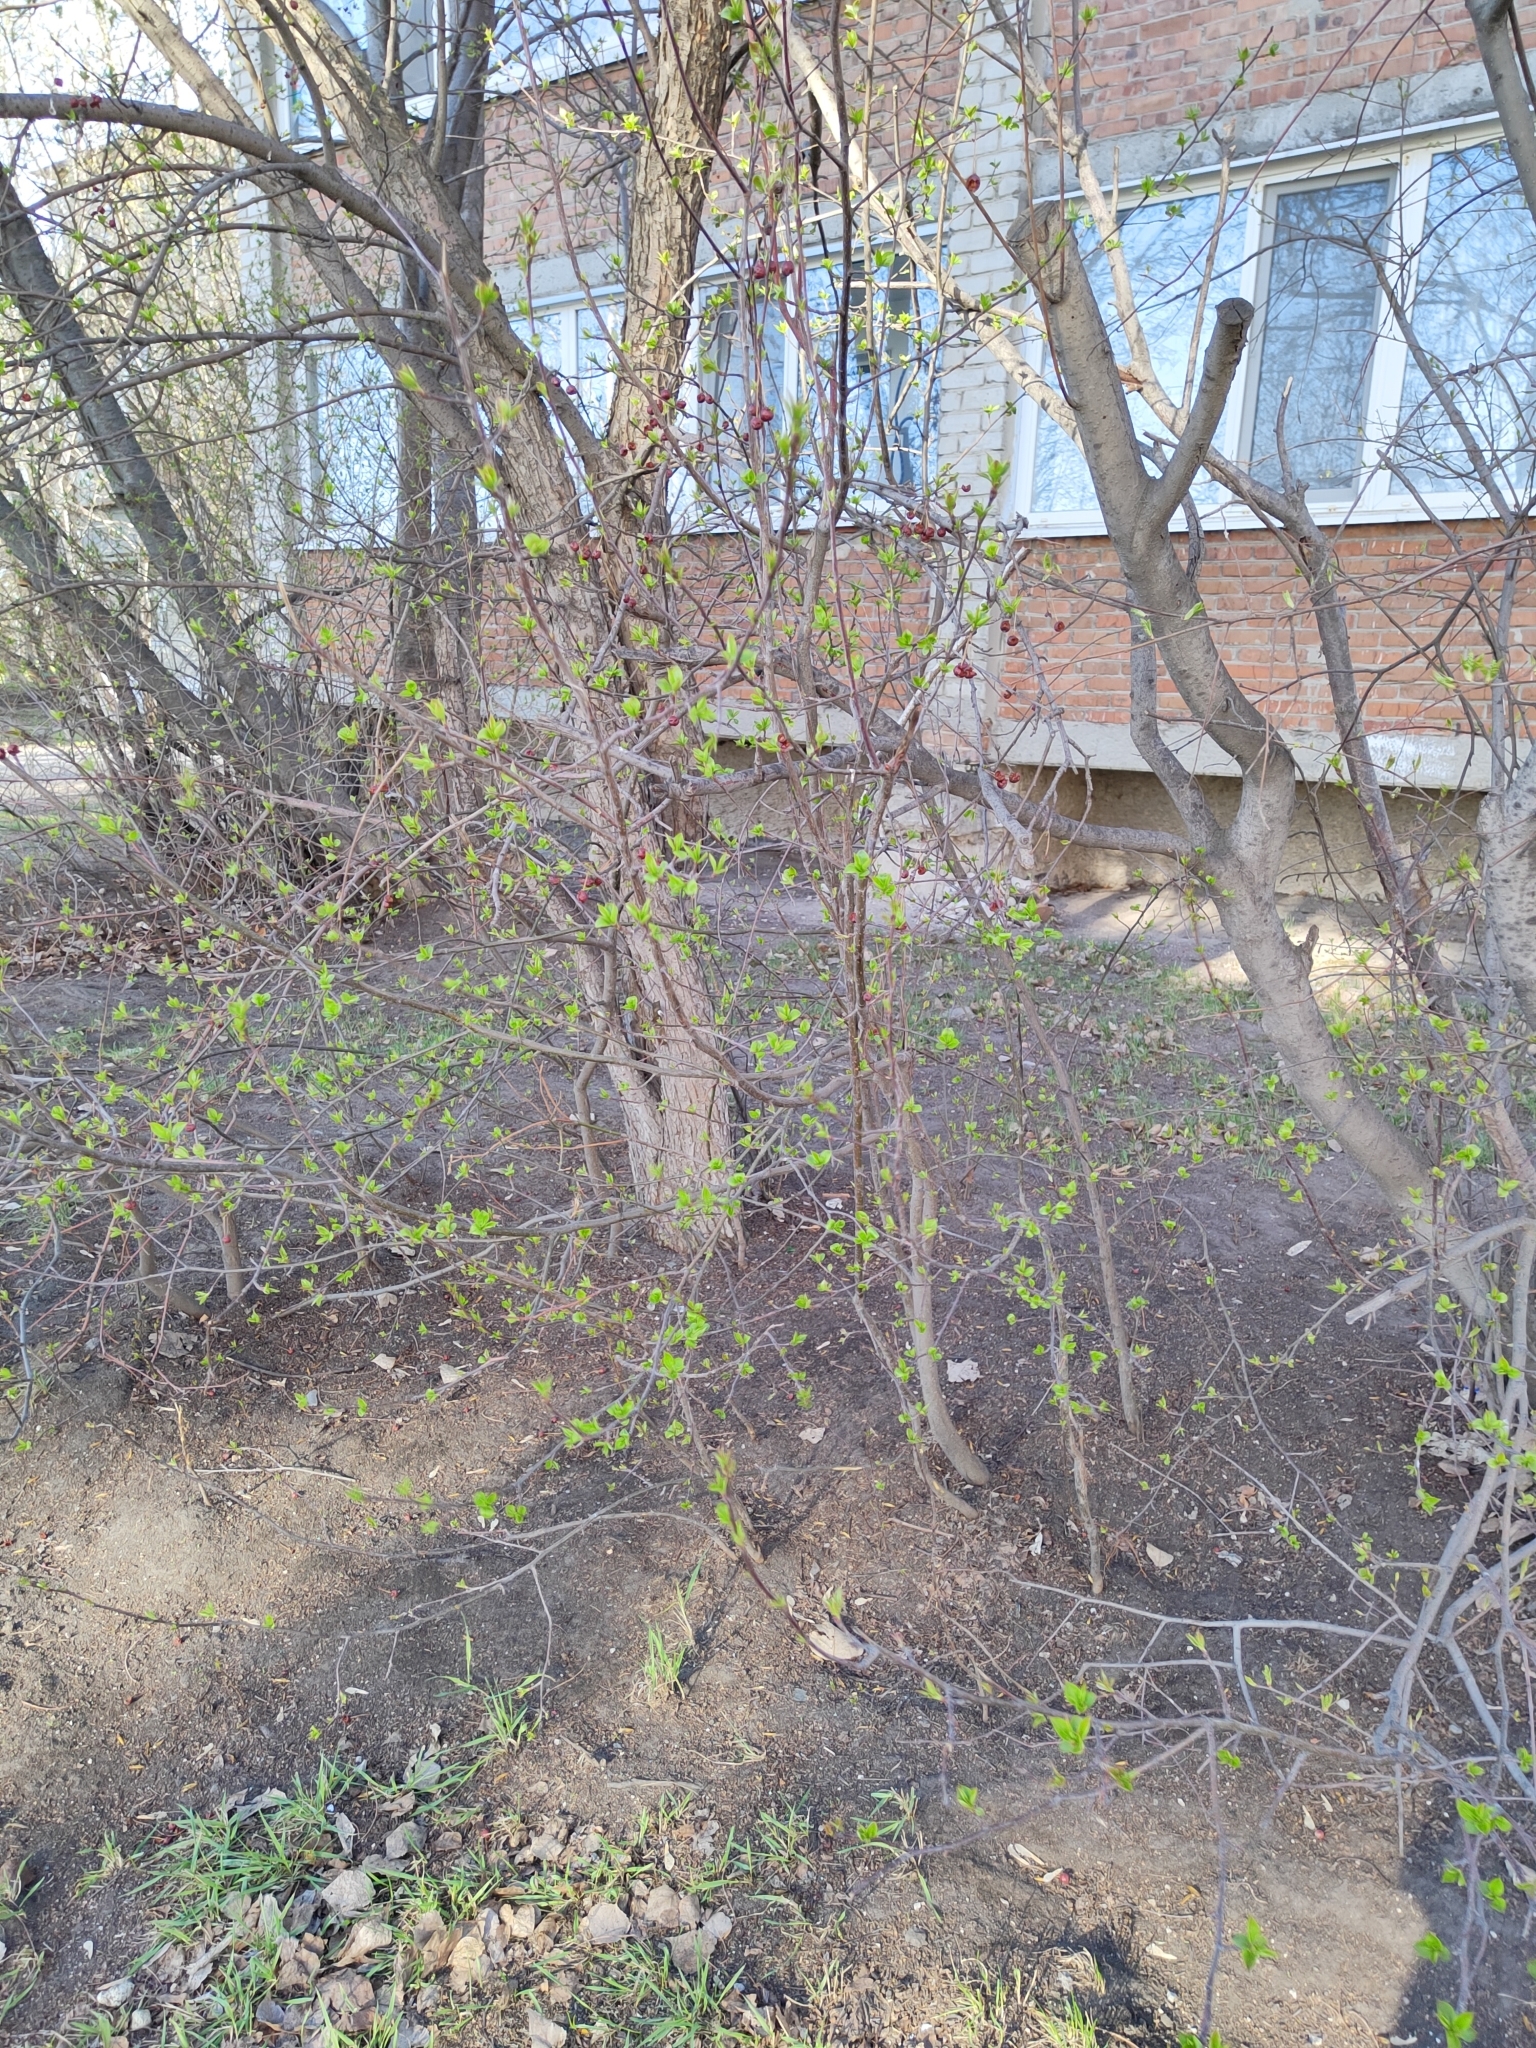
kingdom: Plantae
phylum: Tracheophyta
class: Magnoliopsida
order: Rosales
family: Rosaceae
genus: Malus
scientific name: Malus baccata
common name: Siberian crab
